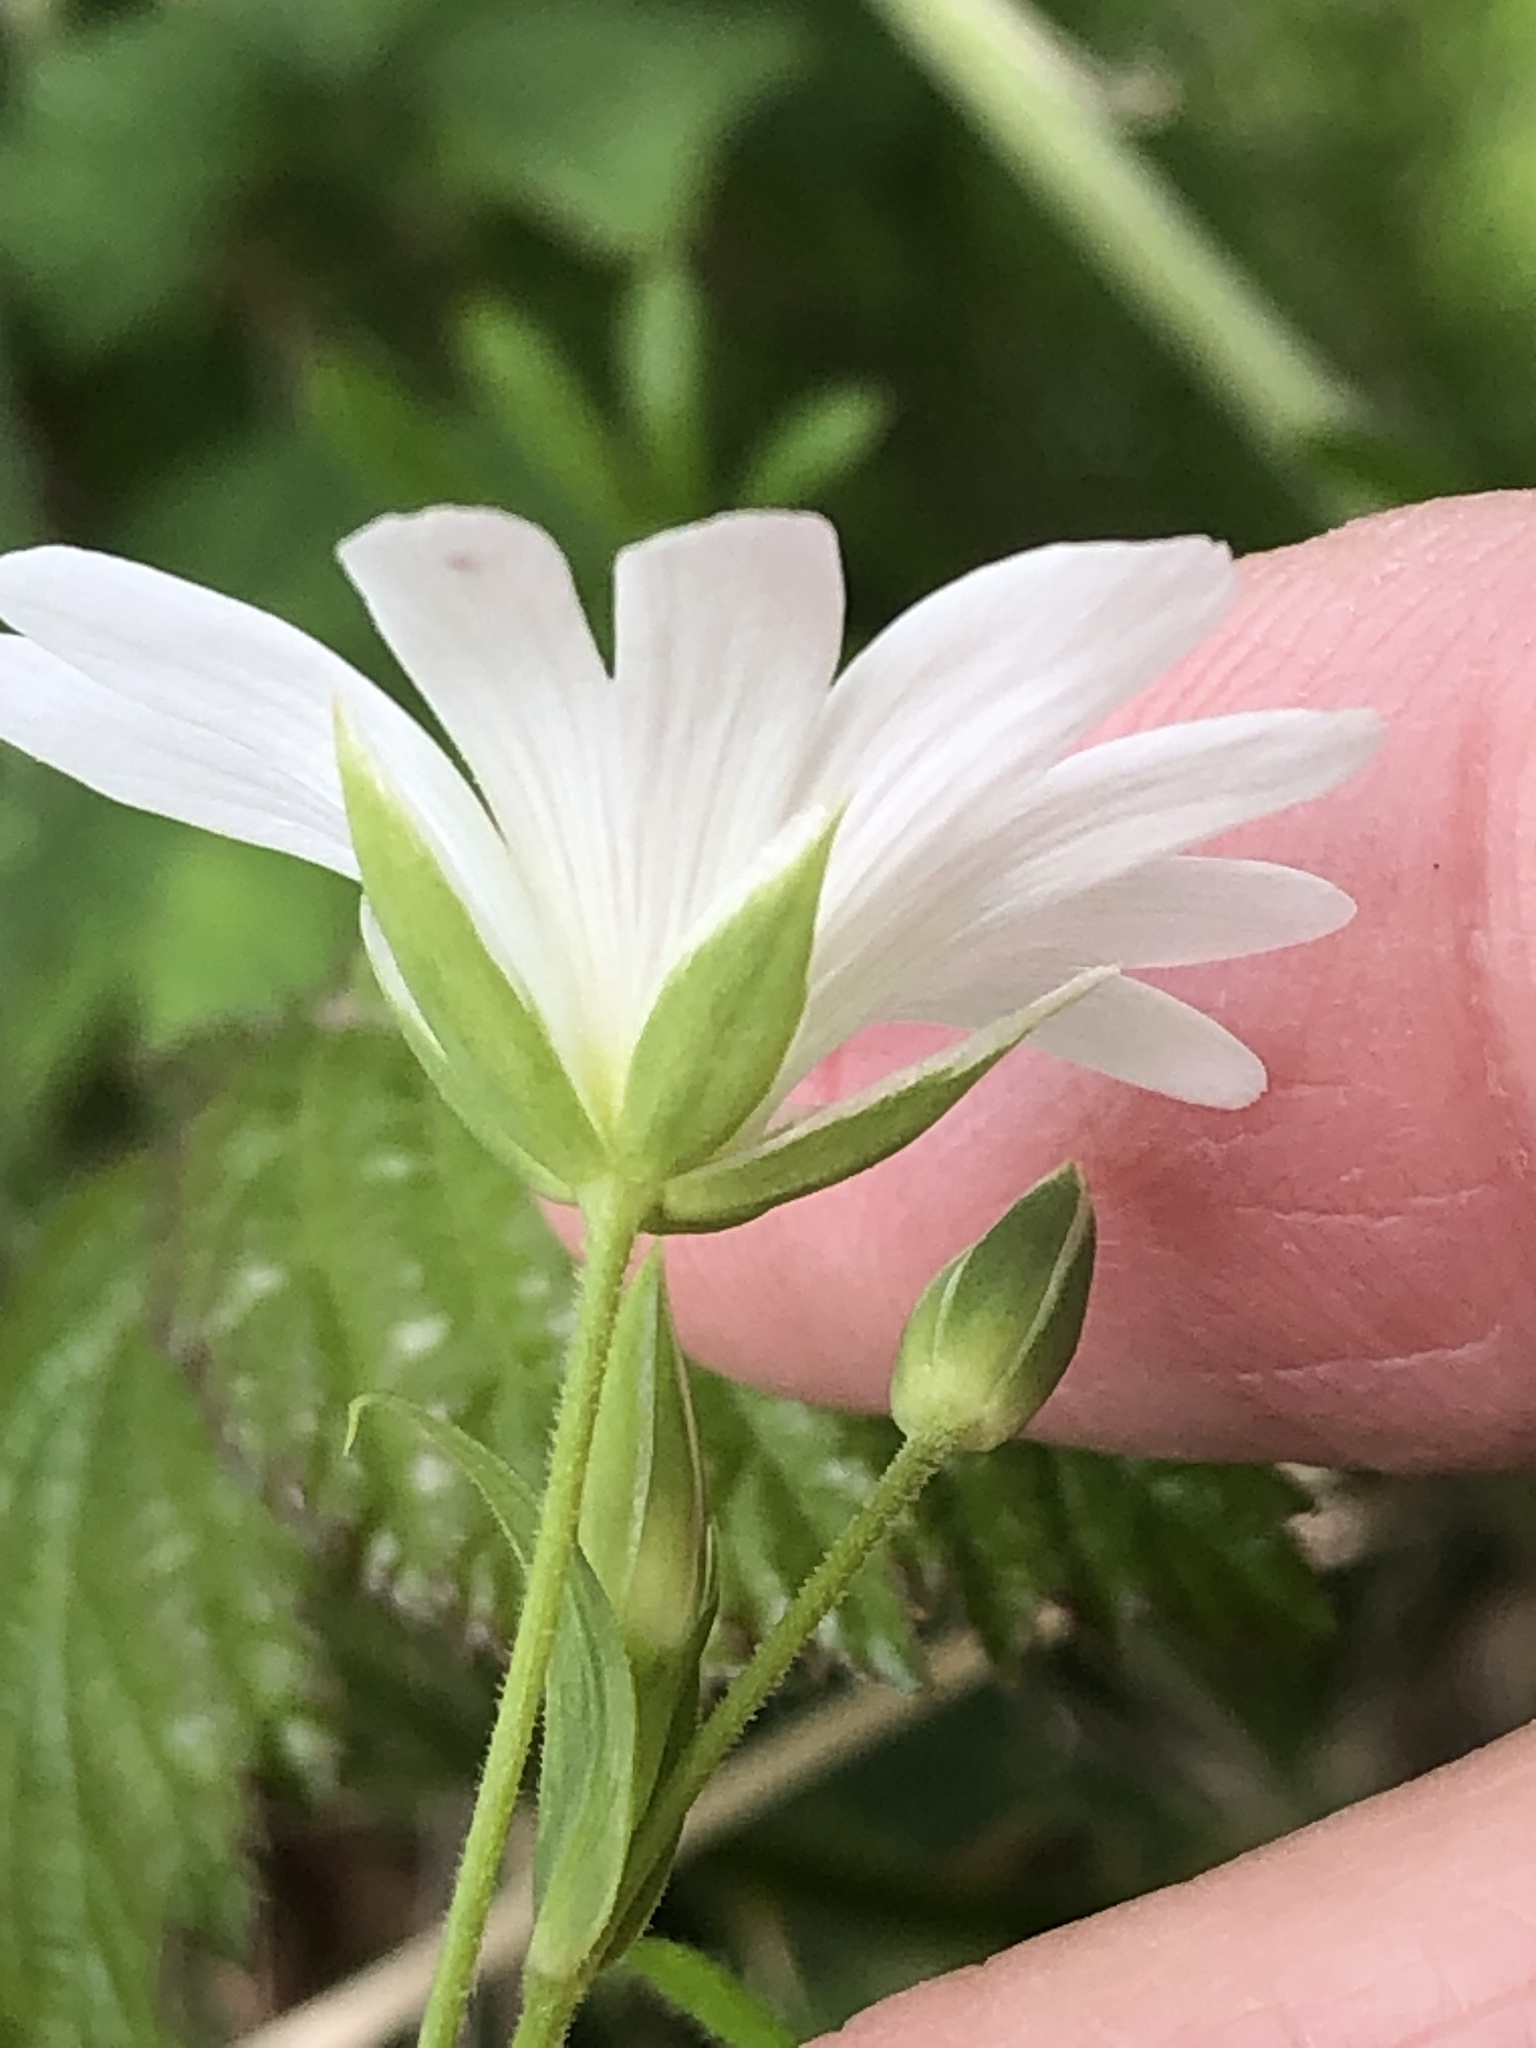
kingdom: Plantae
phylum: Tracheophyta
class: Magnoliopsida
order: Caryophyllales
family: Caryophyllaceae
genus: Rabelera
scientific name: Rabelera holostea
